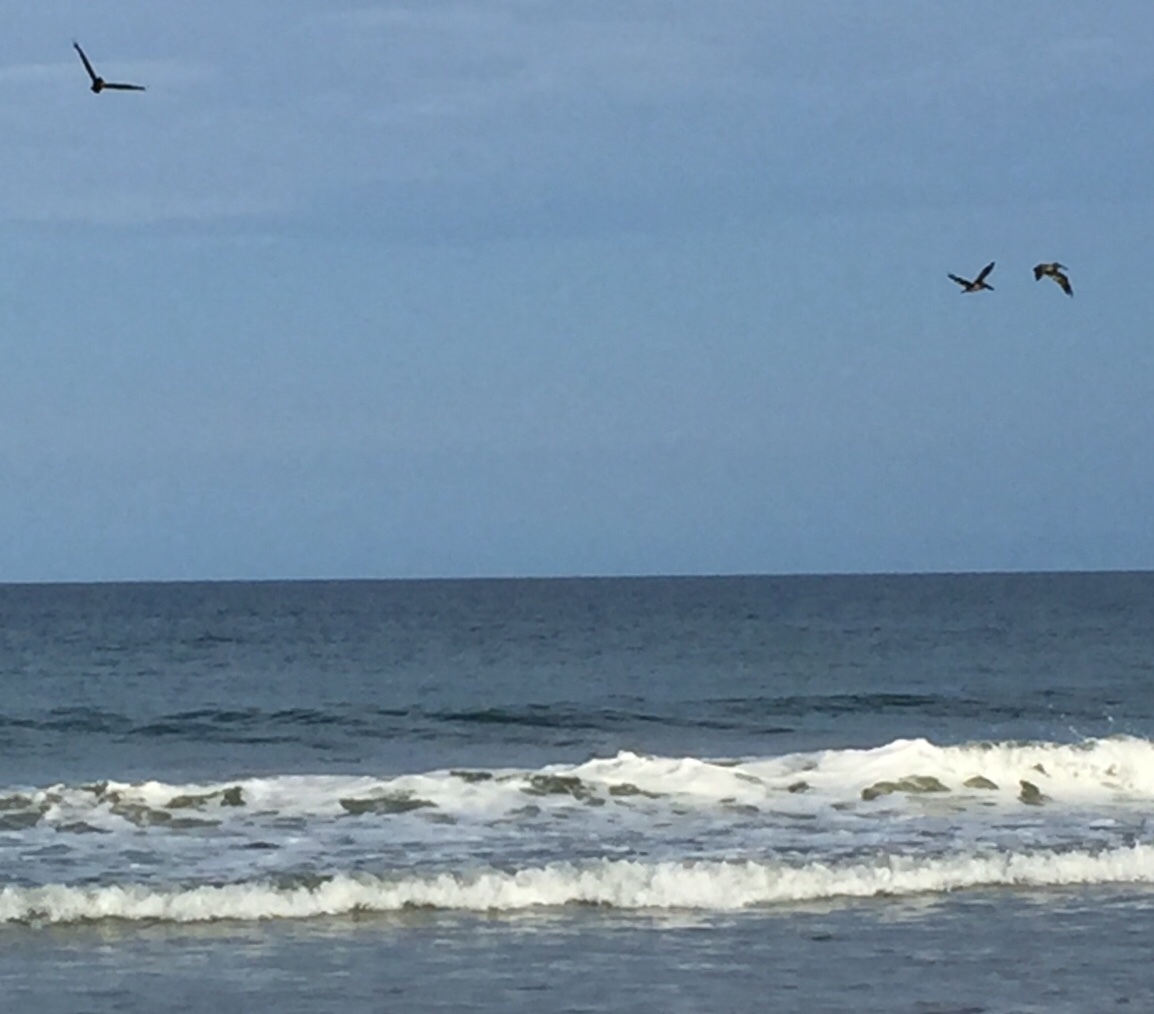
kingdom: Animalia
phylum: Chordata
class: Aves
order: Pelecaniformes
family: Pelecanidae
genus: Pelecanus
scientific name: Pelecanus occidentalis
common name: Brown pelican
